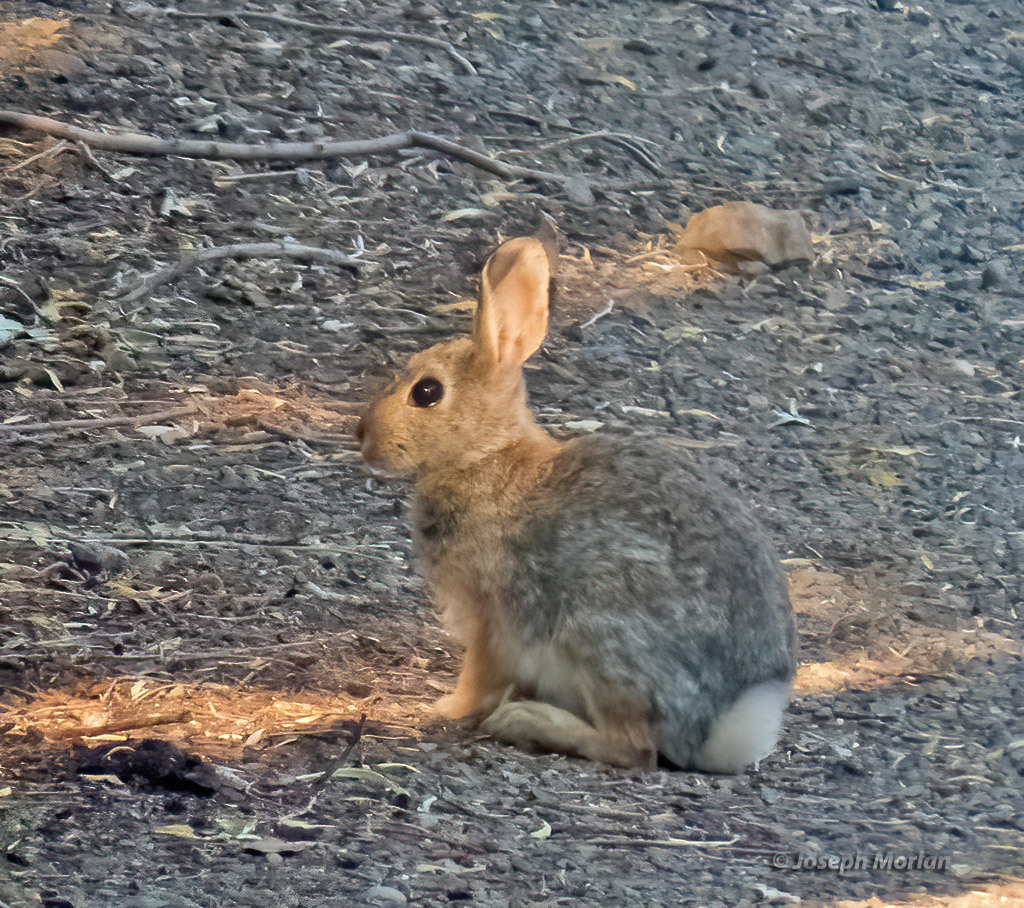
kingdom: Animalia
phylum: Chordata
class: Mammalia
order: Lagomorpha
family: Leporidae
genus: Sylvilagus
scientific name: Sylvilagus audubonii
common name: Desert cottontail
